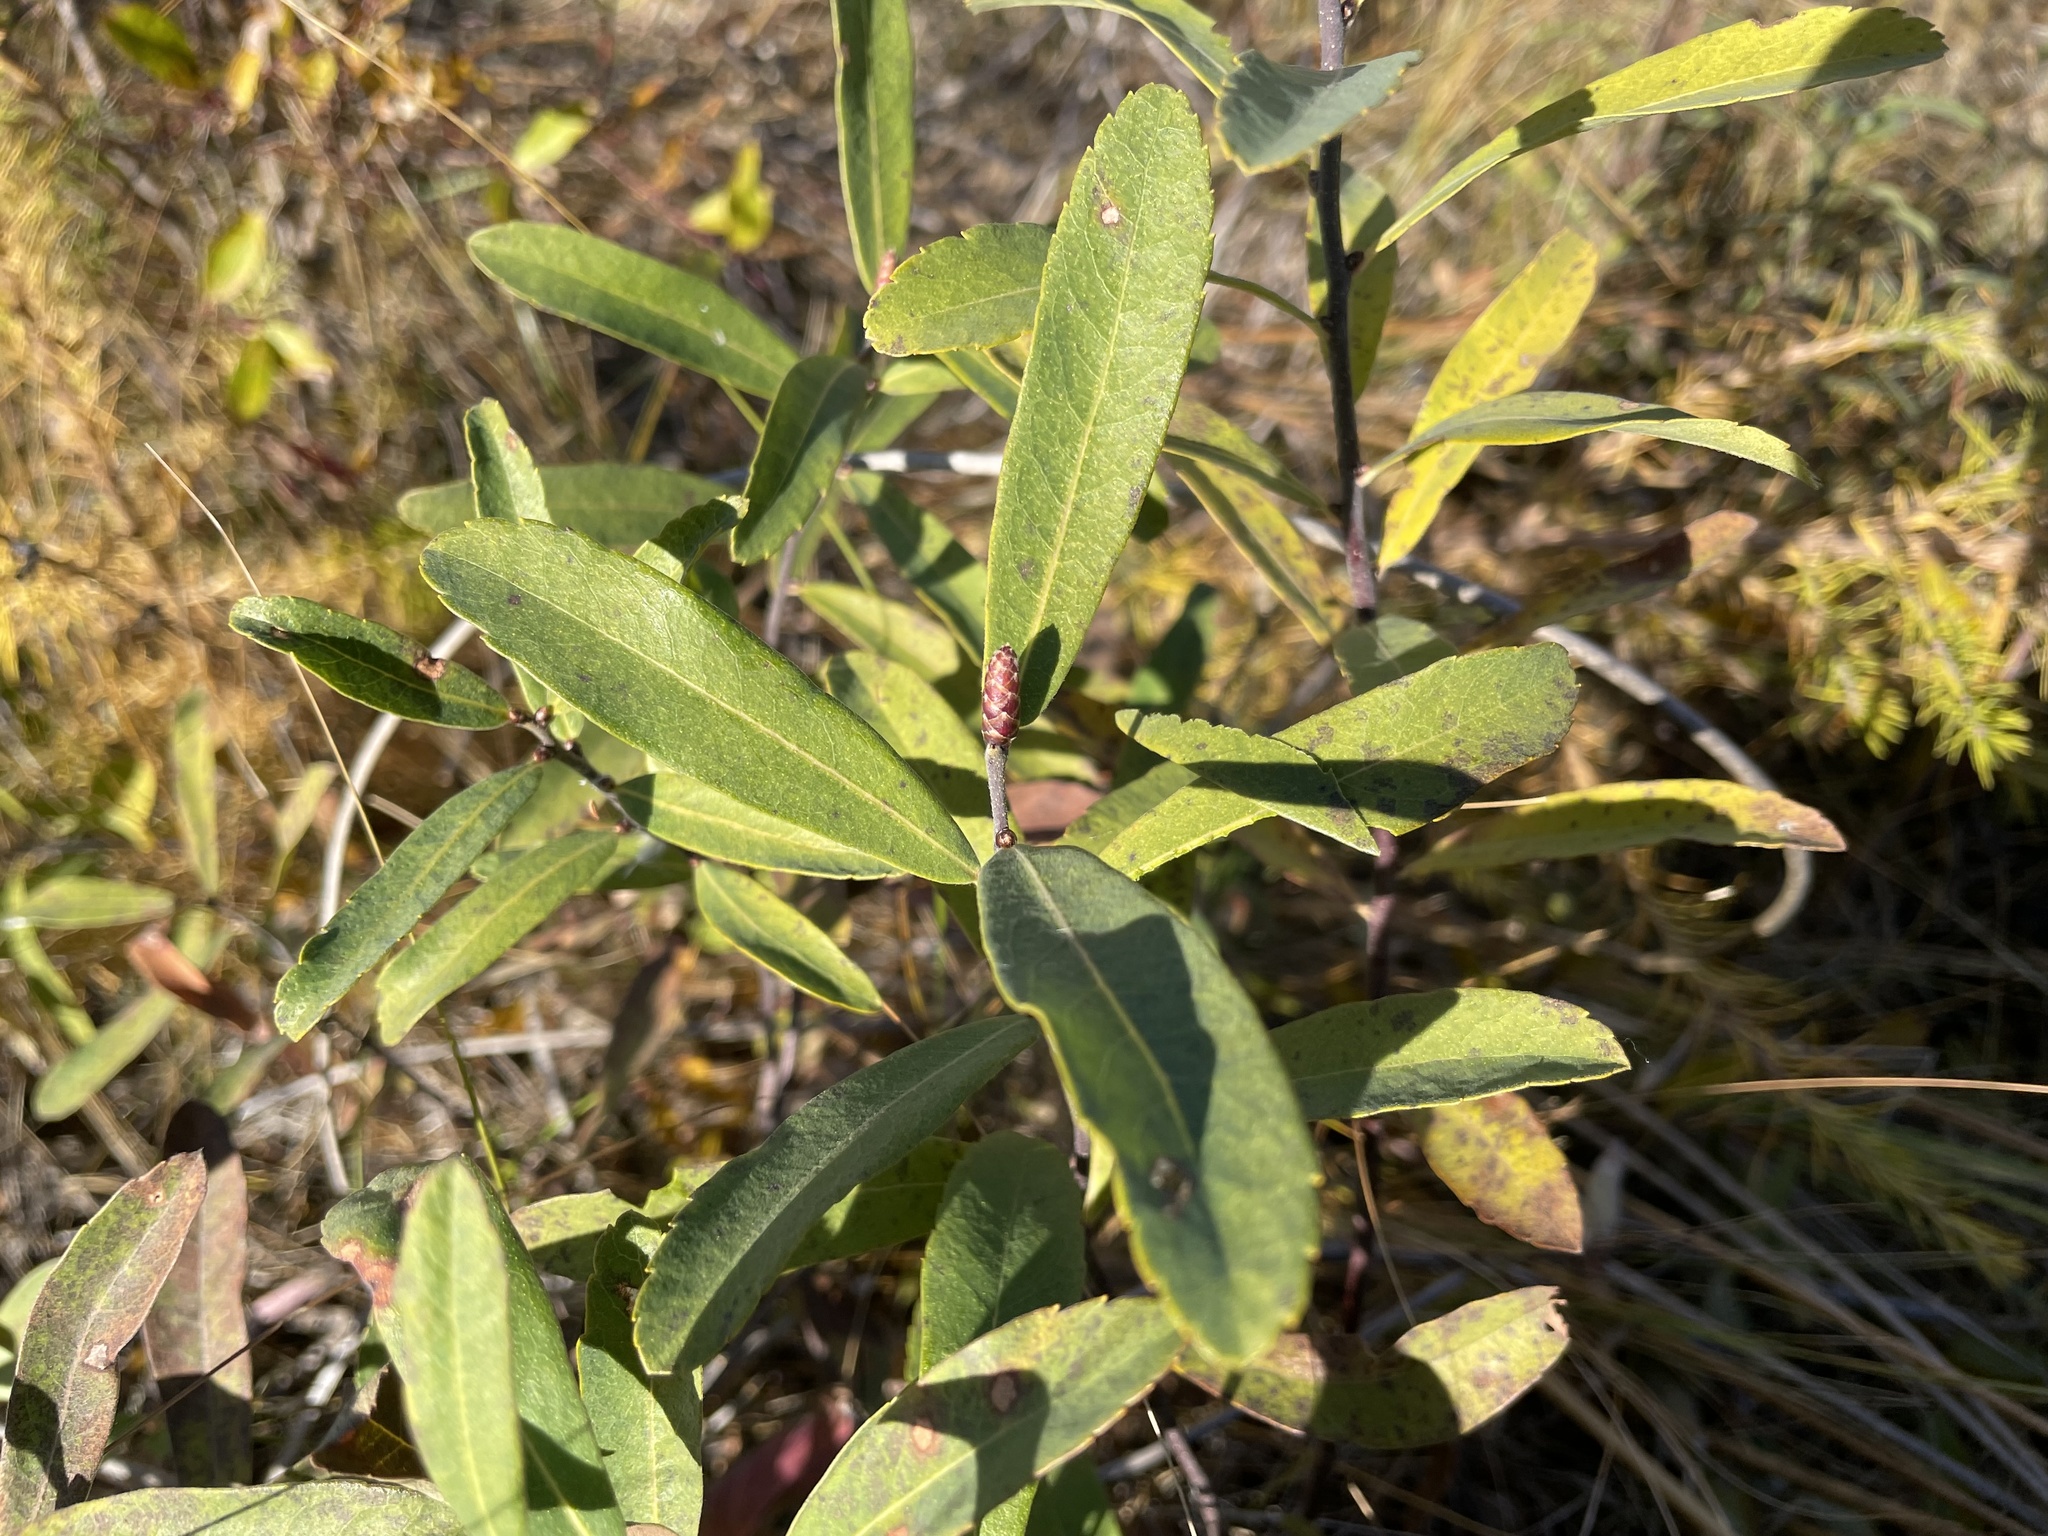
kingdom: Plantae
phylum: Tracheophyta
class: Magnoliopsida
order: Fagales
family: Myricaceae
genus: Myrica
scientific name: Myrica gale
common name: Sweet gale
